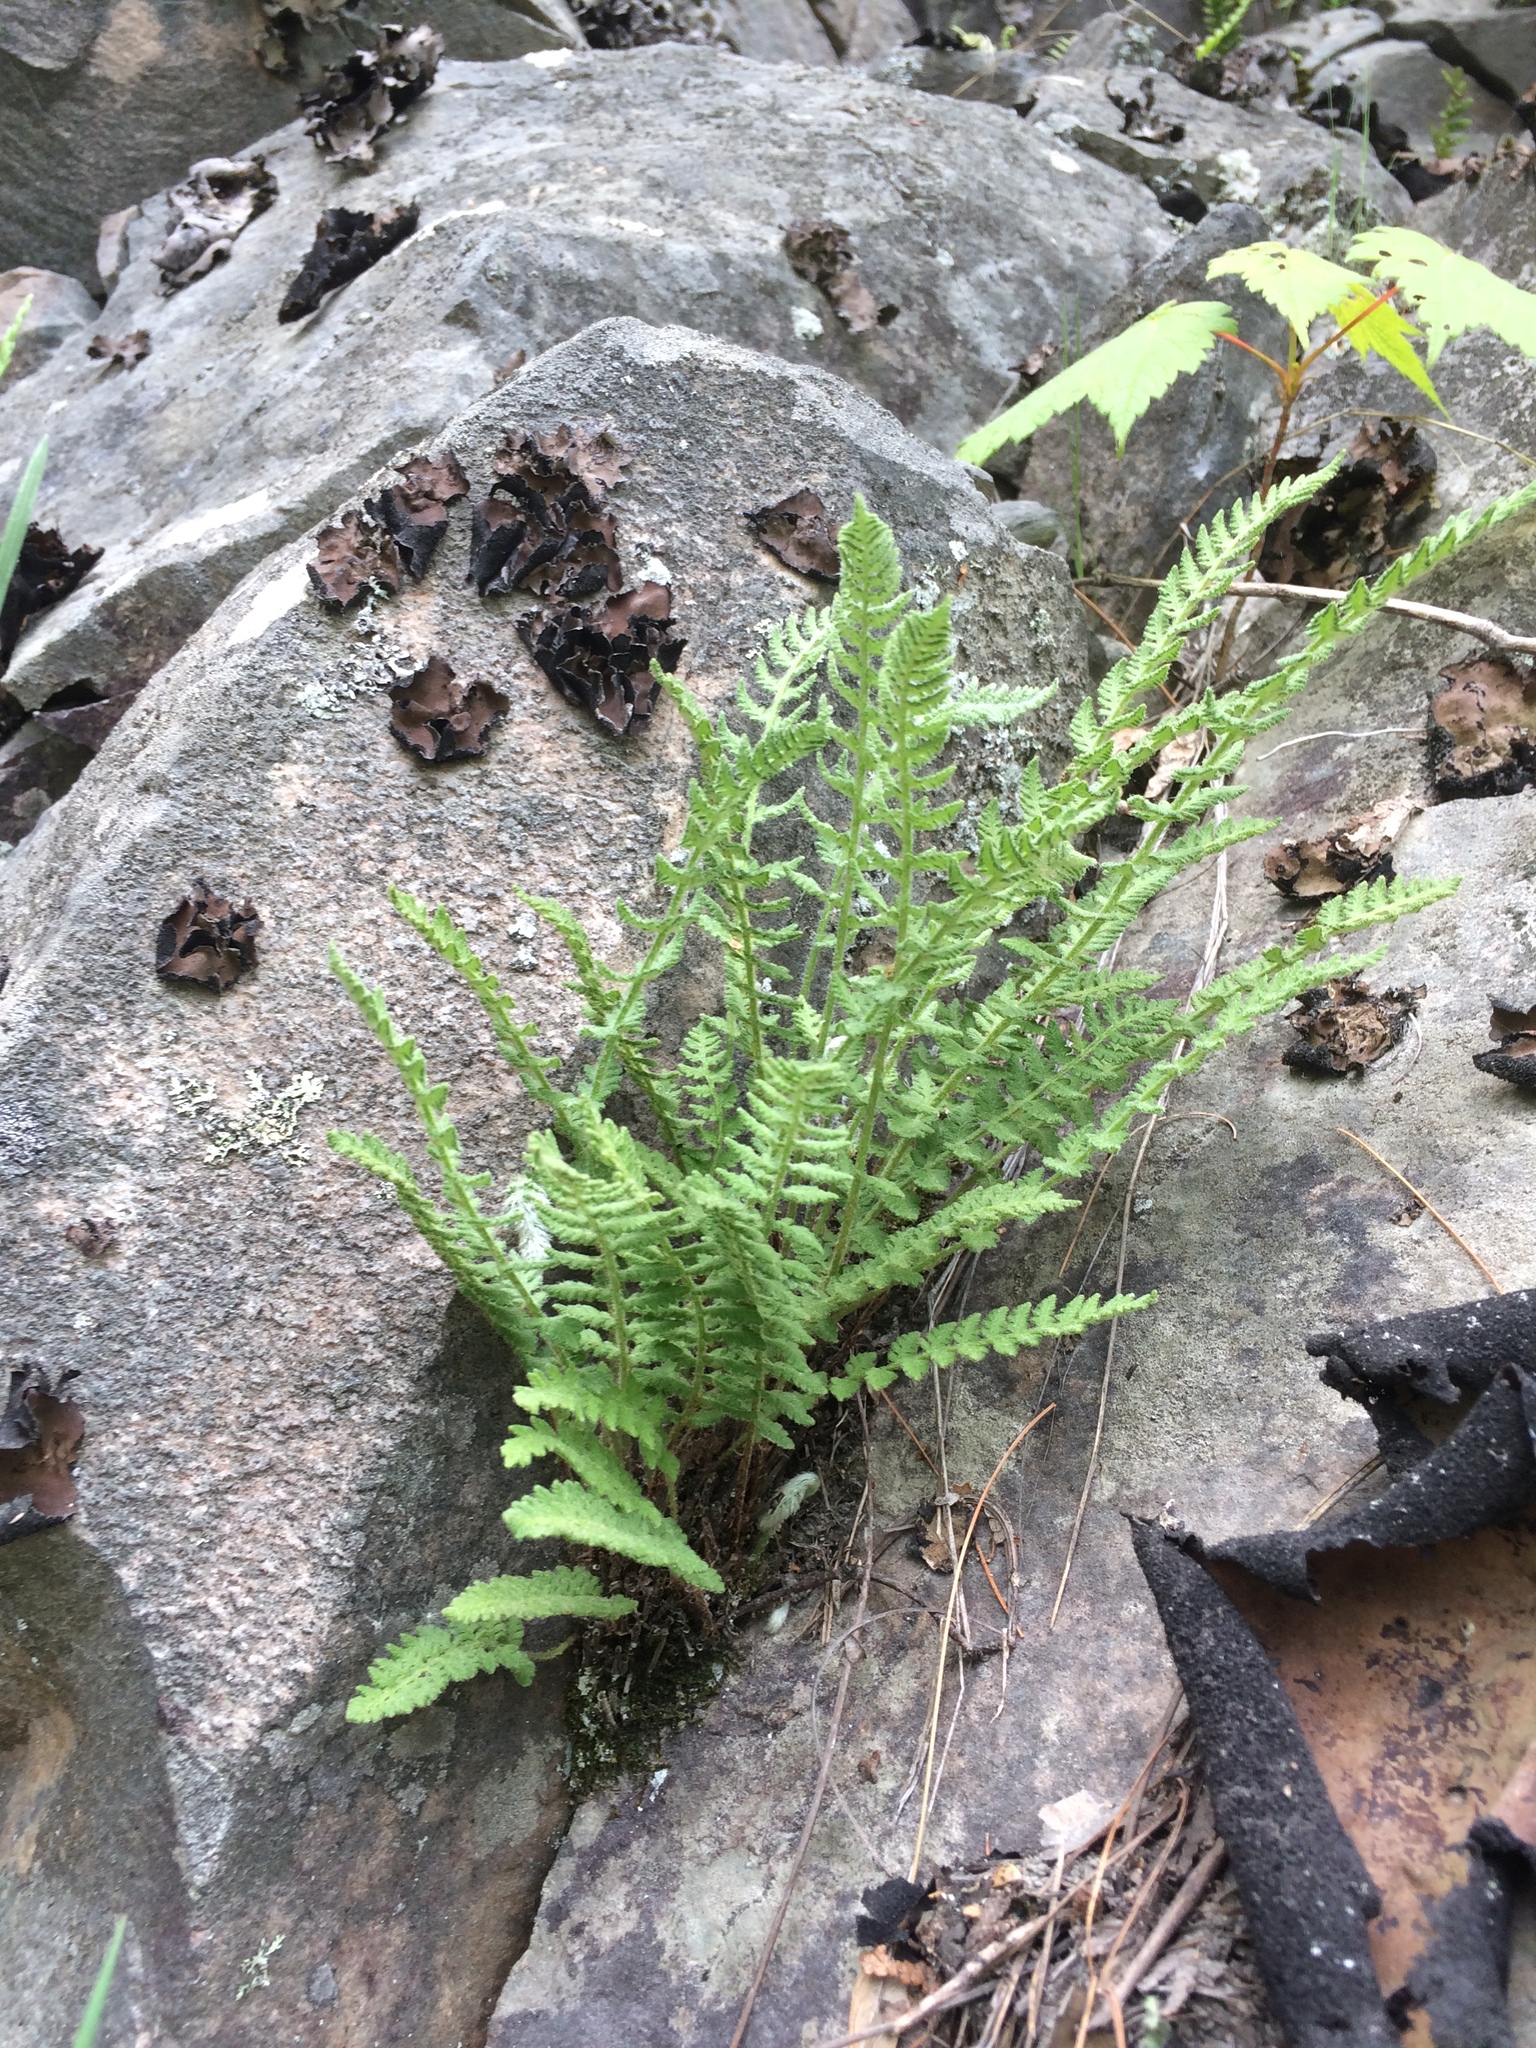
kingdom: Plantae
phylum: Tracheophyta
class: Polypodiopsida
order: Polypodiales
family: Woodsiaceae
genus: Woodsia
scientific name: Woodsia ilvensis
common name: Fragrant woodsia
